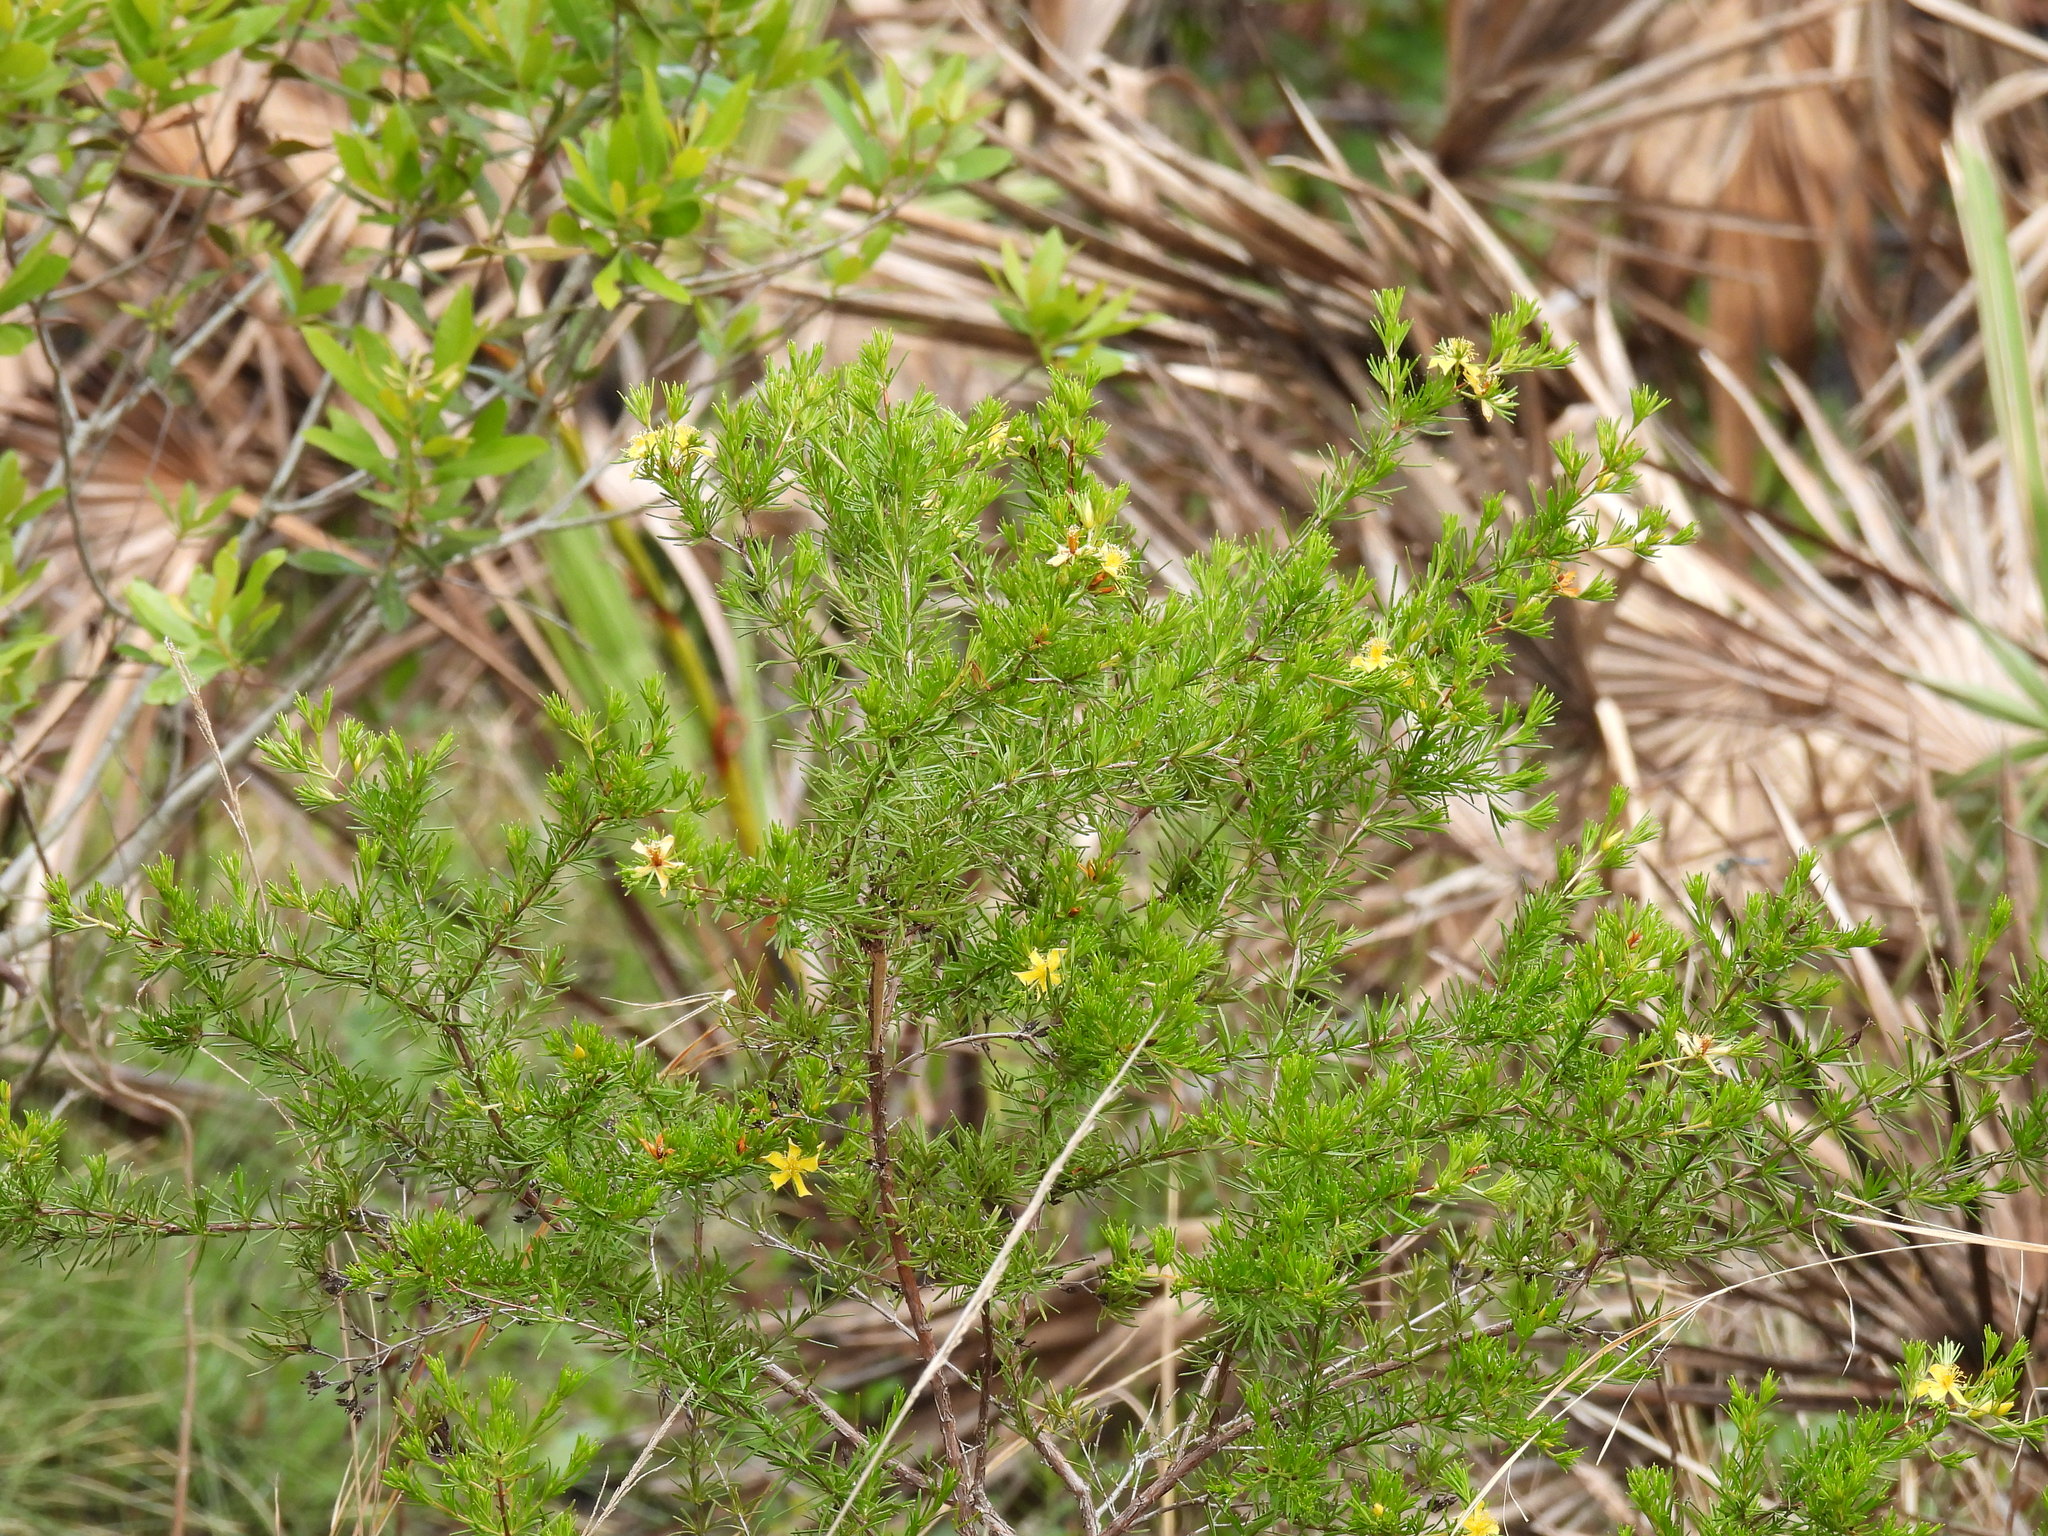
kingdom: Plantae
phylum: Tracheophyta
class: Magnoliopsida
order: Malpighiales
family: Hypericaceae
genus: Hypericum
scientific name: Hypericum fasciculatum
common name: Peelbark st. john's wort
